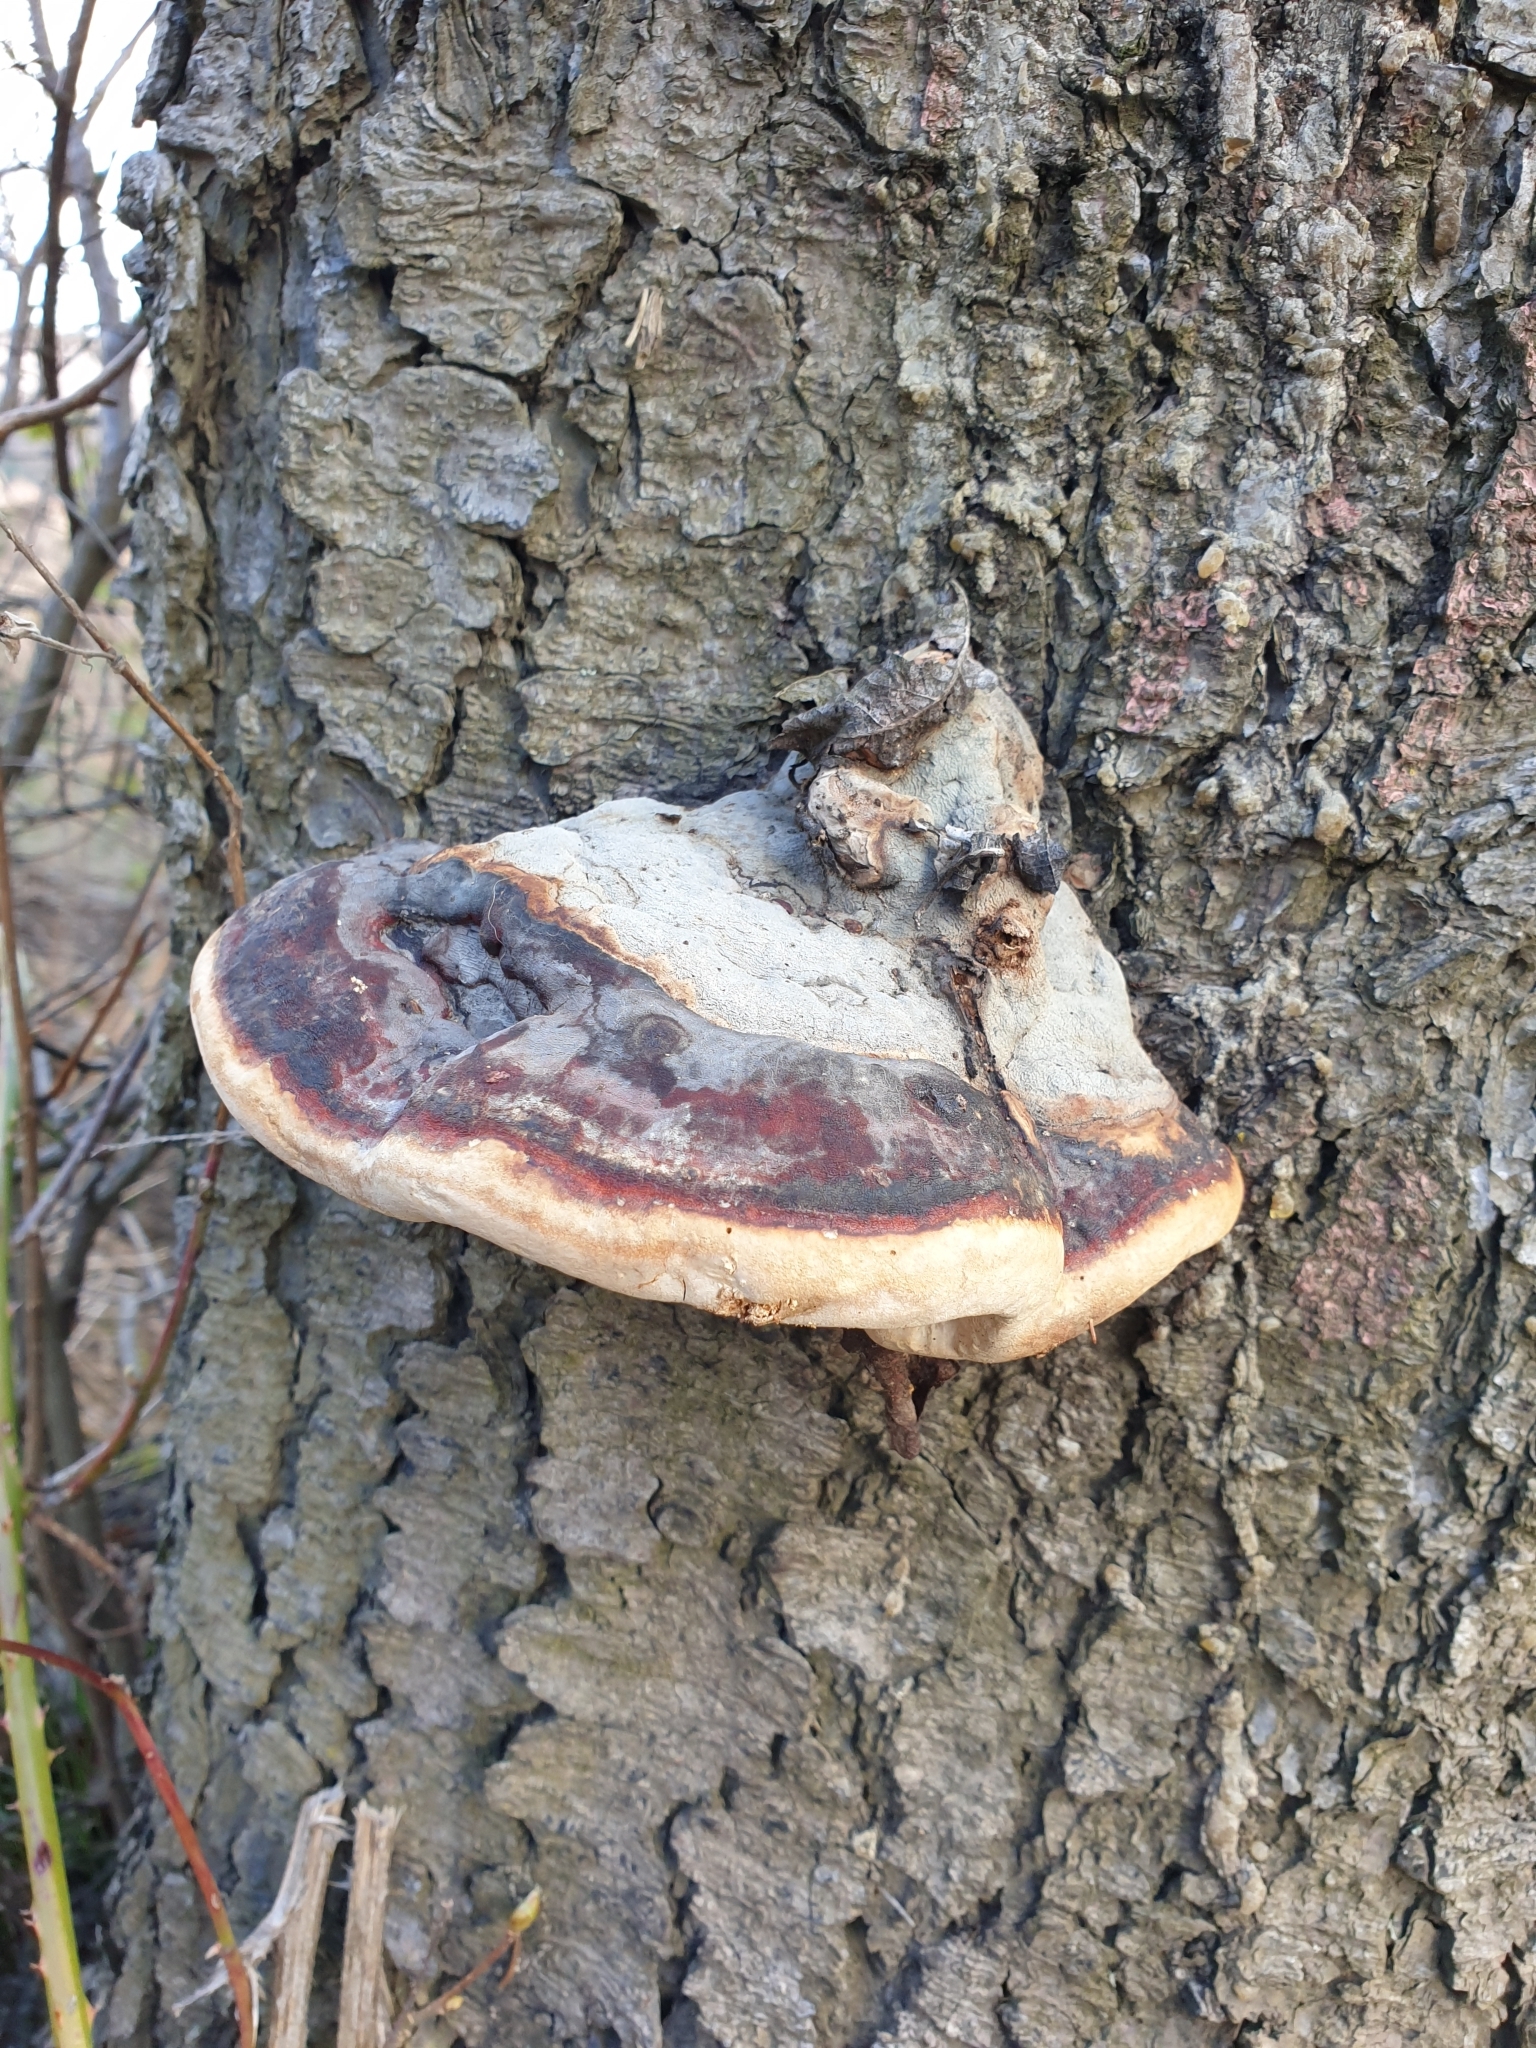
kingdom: Fungi
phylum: Basidiomycota
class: Agaricomycetes
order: Polyporales
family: Fomitopsidaceae
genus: Fomitopsis
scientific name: Fomitopsis pinicola
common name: Red-belted bracket
